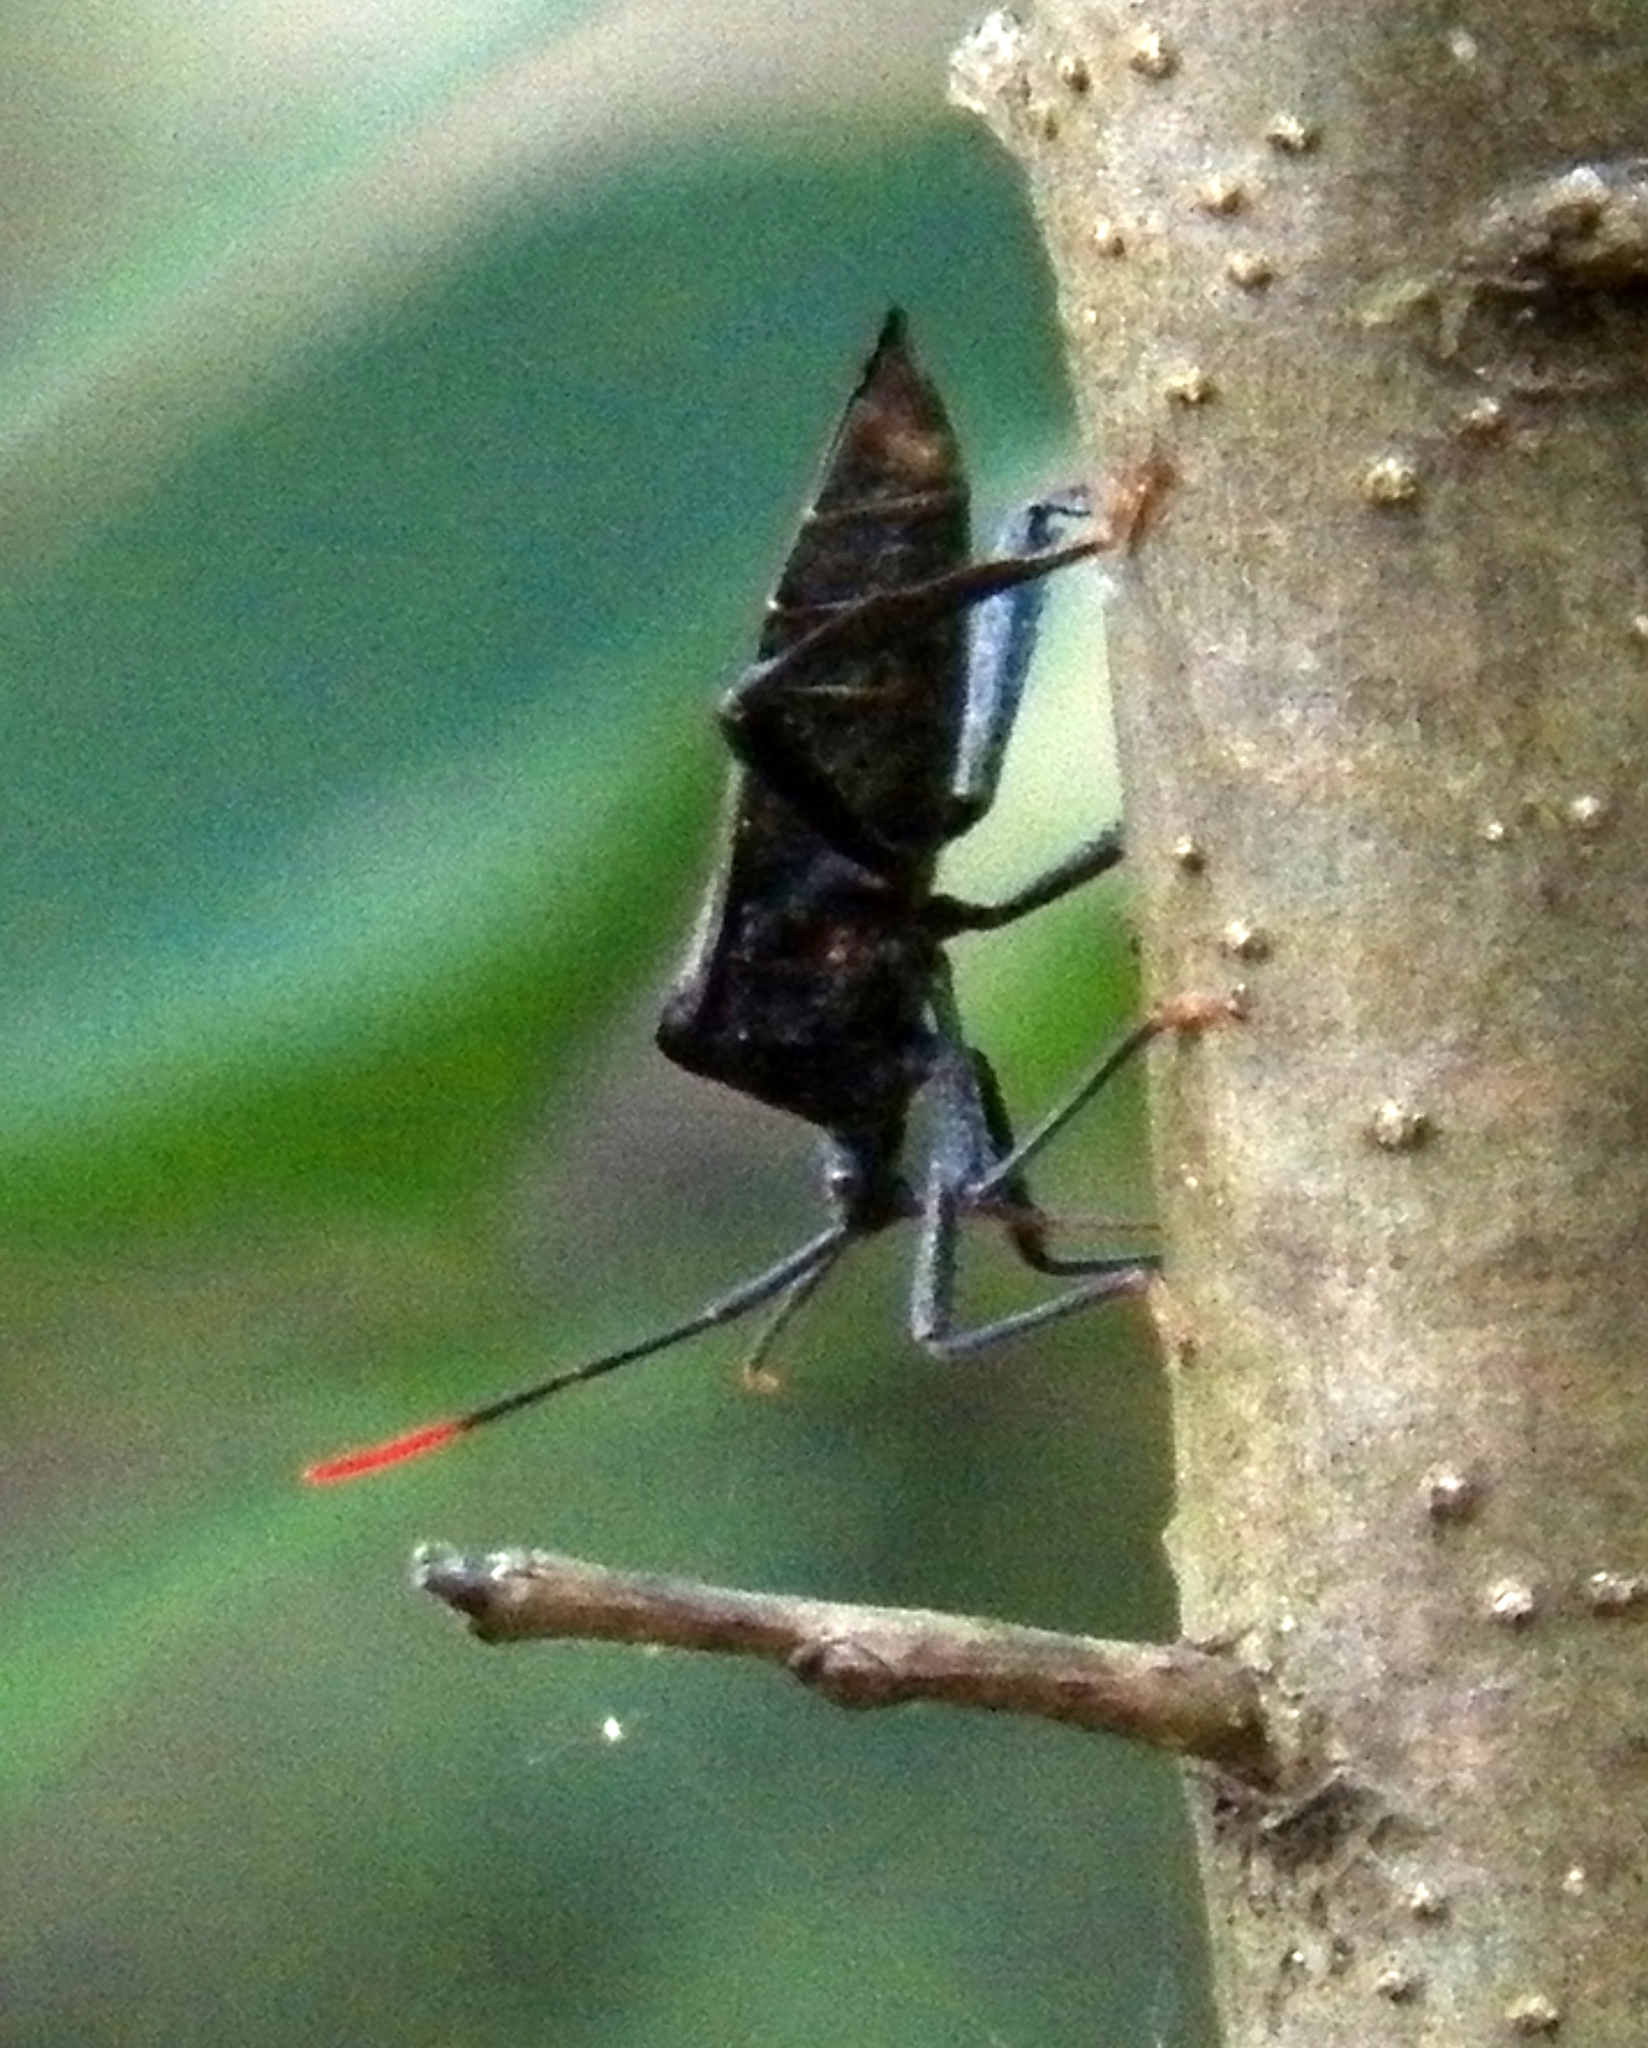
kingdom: Animalia
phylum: Arthropoda
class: Insecta
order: Hemiptera
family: Coreidae
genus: Acanthocephala
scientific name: Acanthocephala terminalis
